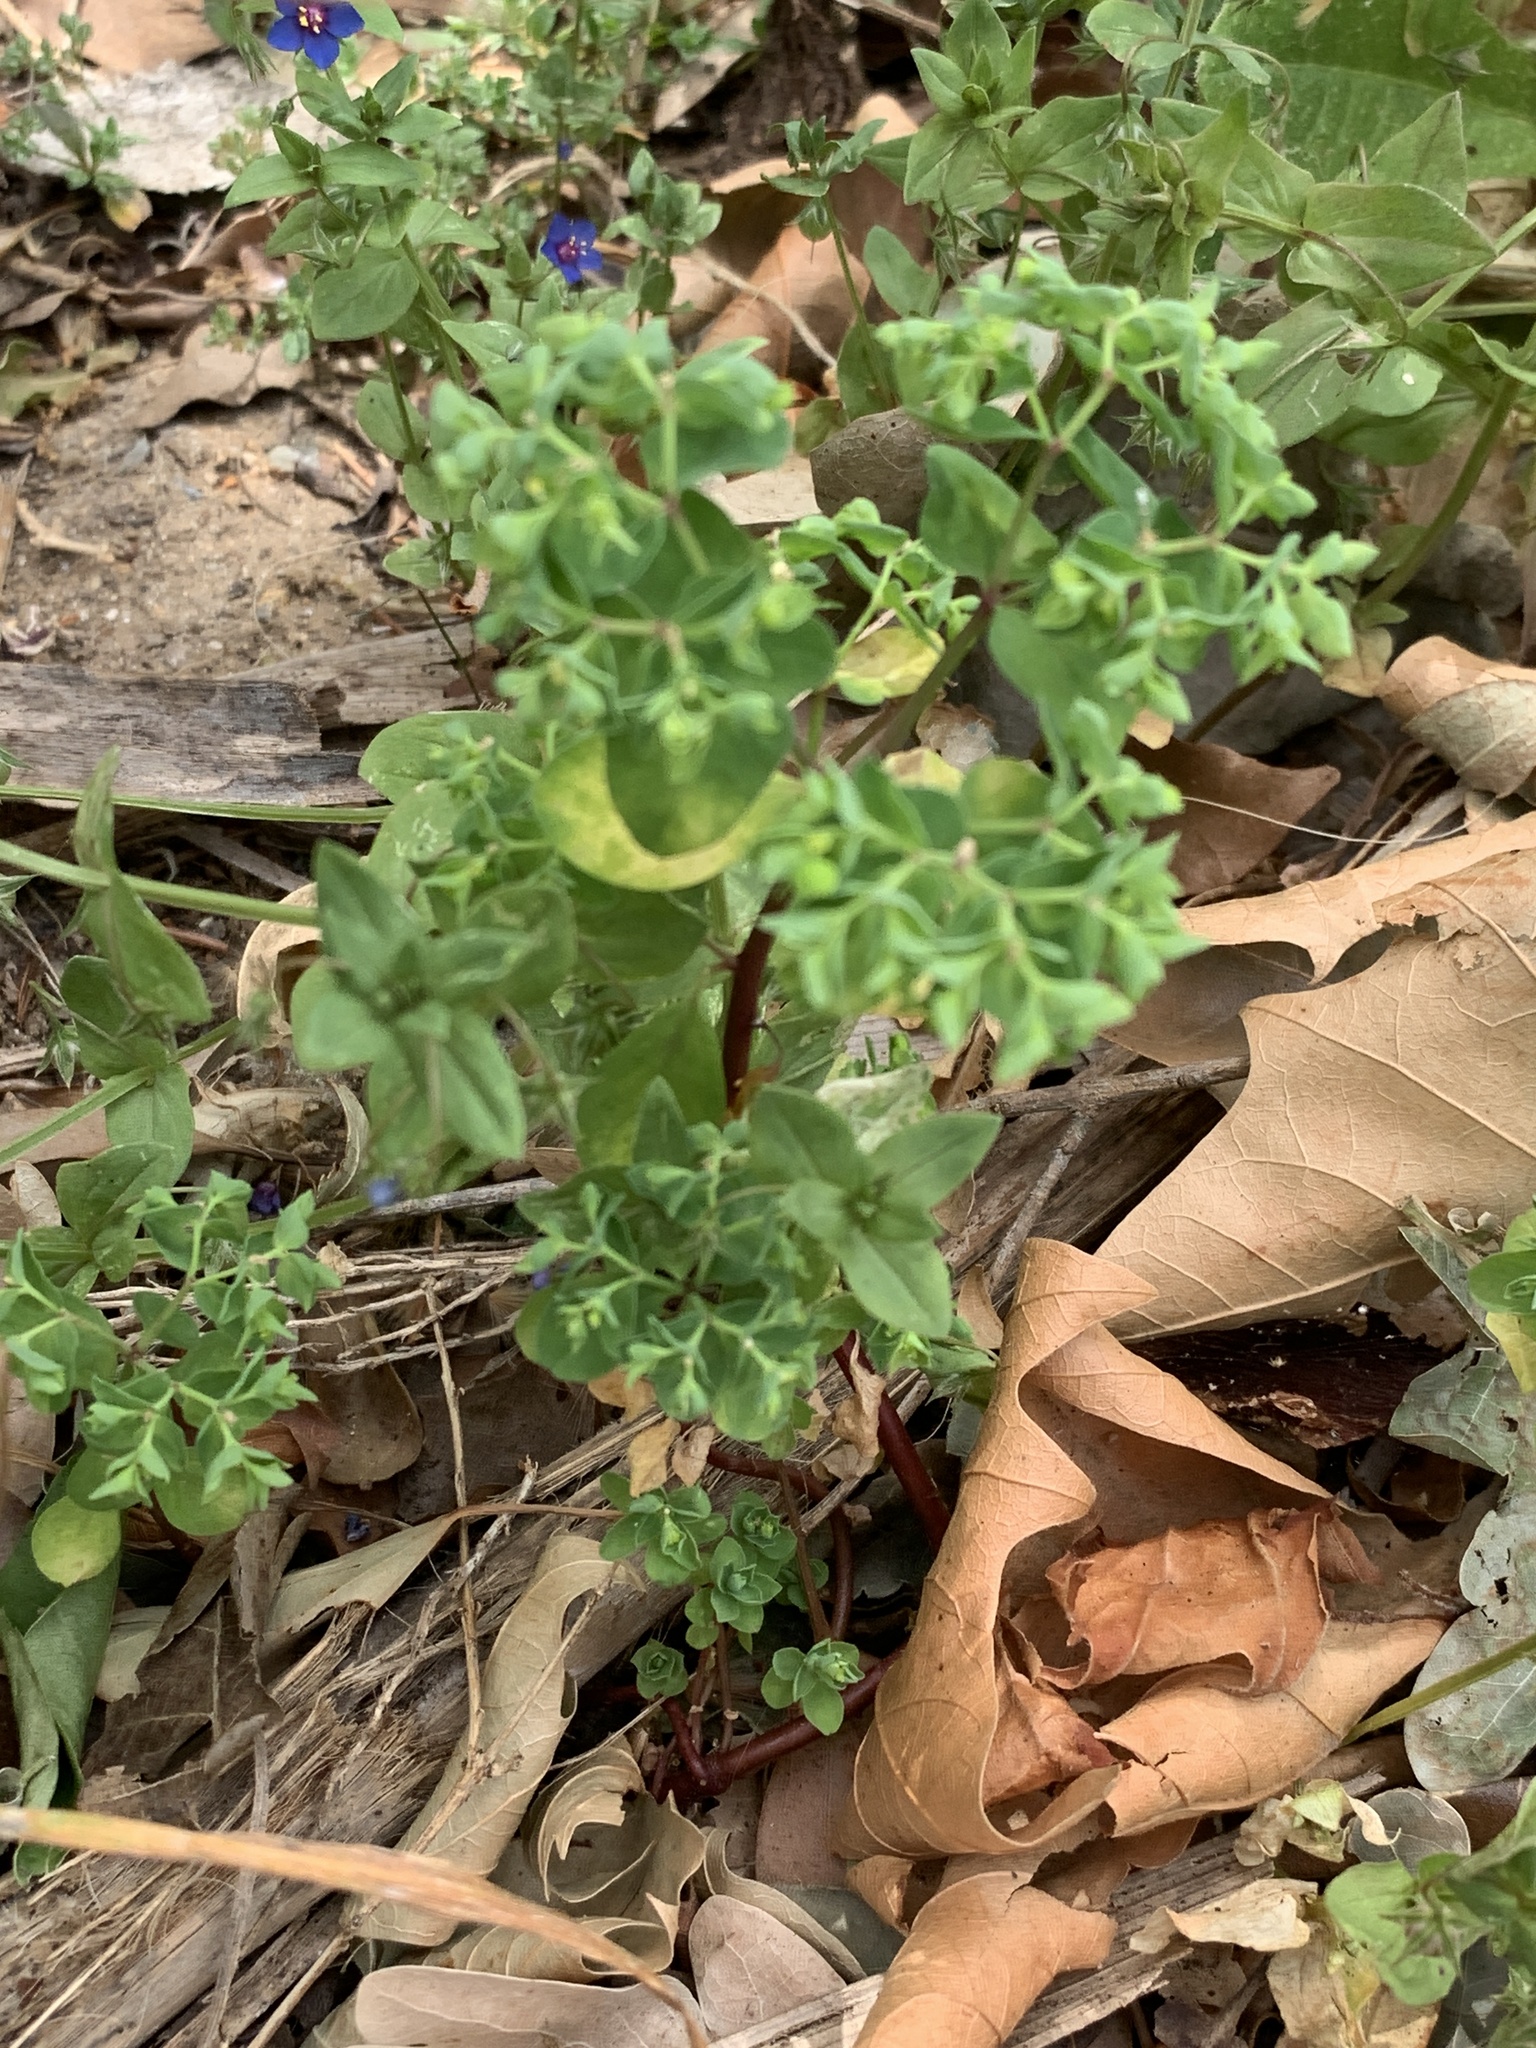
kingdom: Plantae
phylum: Tracheophyta
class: Magnoliopsida
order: Malpighiales
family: Euphorbiaceae
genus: Euphorbia
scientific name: Euphorbia peplus
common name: Petty spurge
